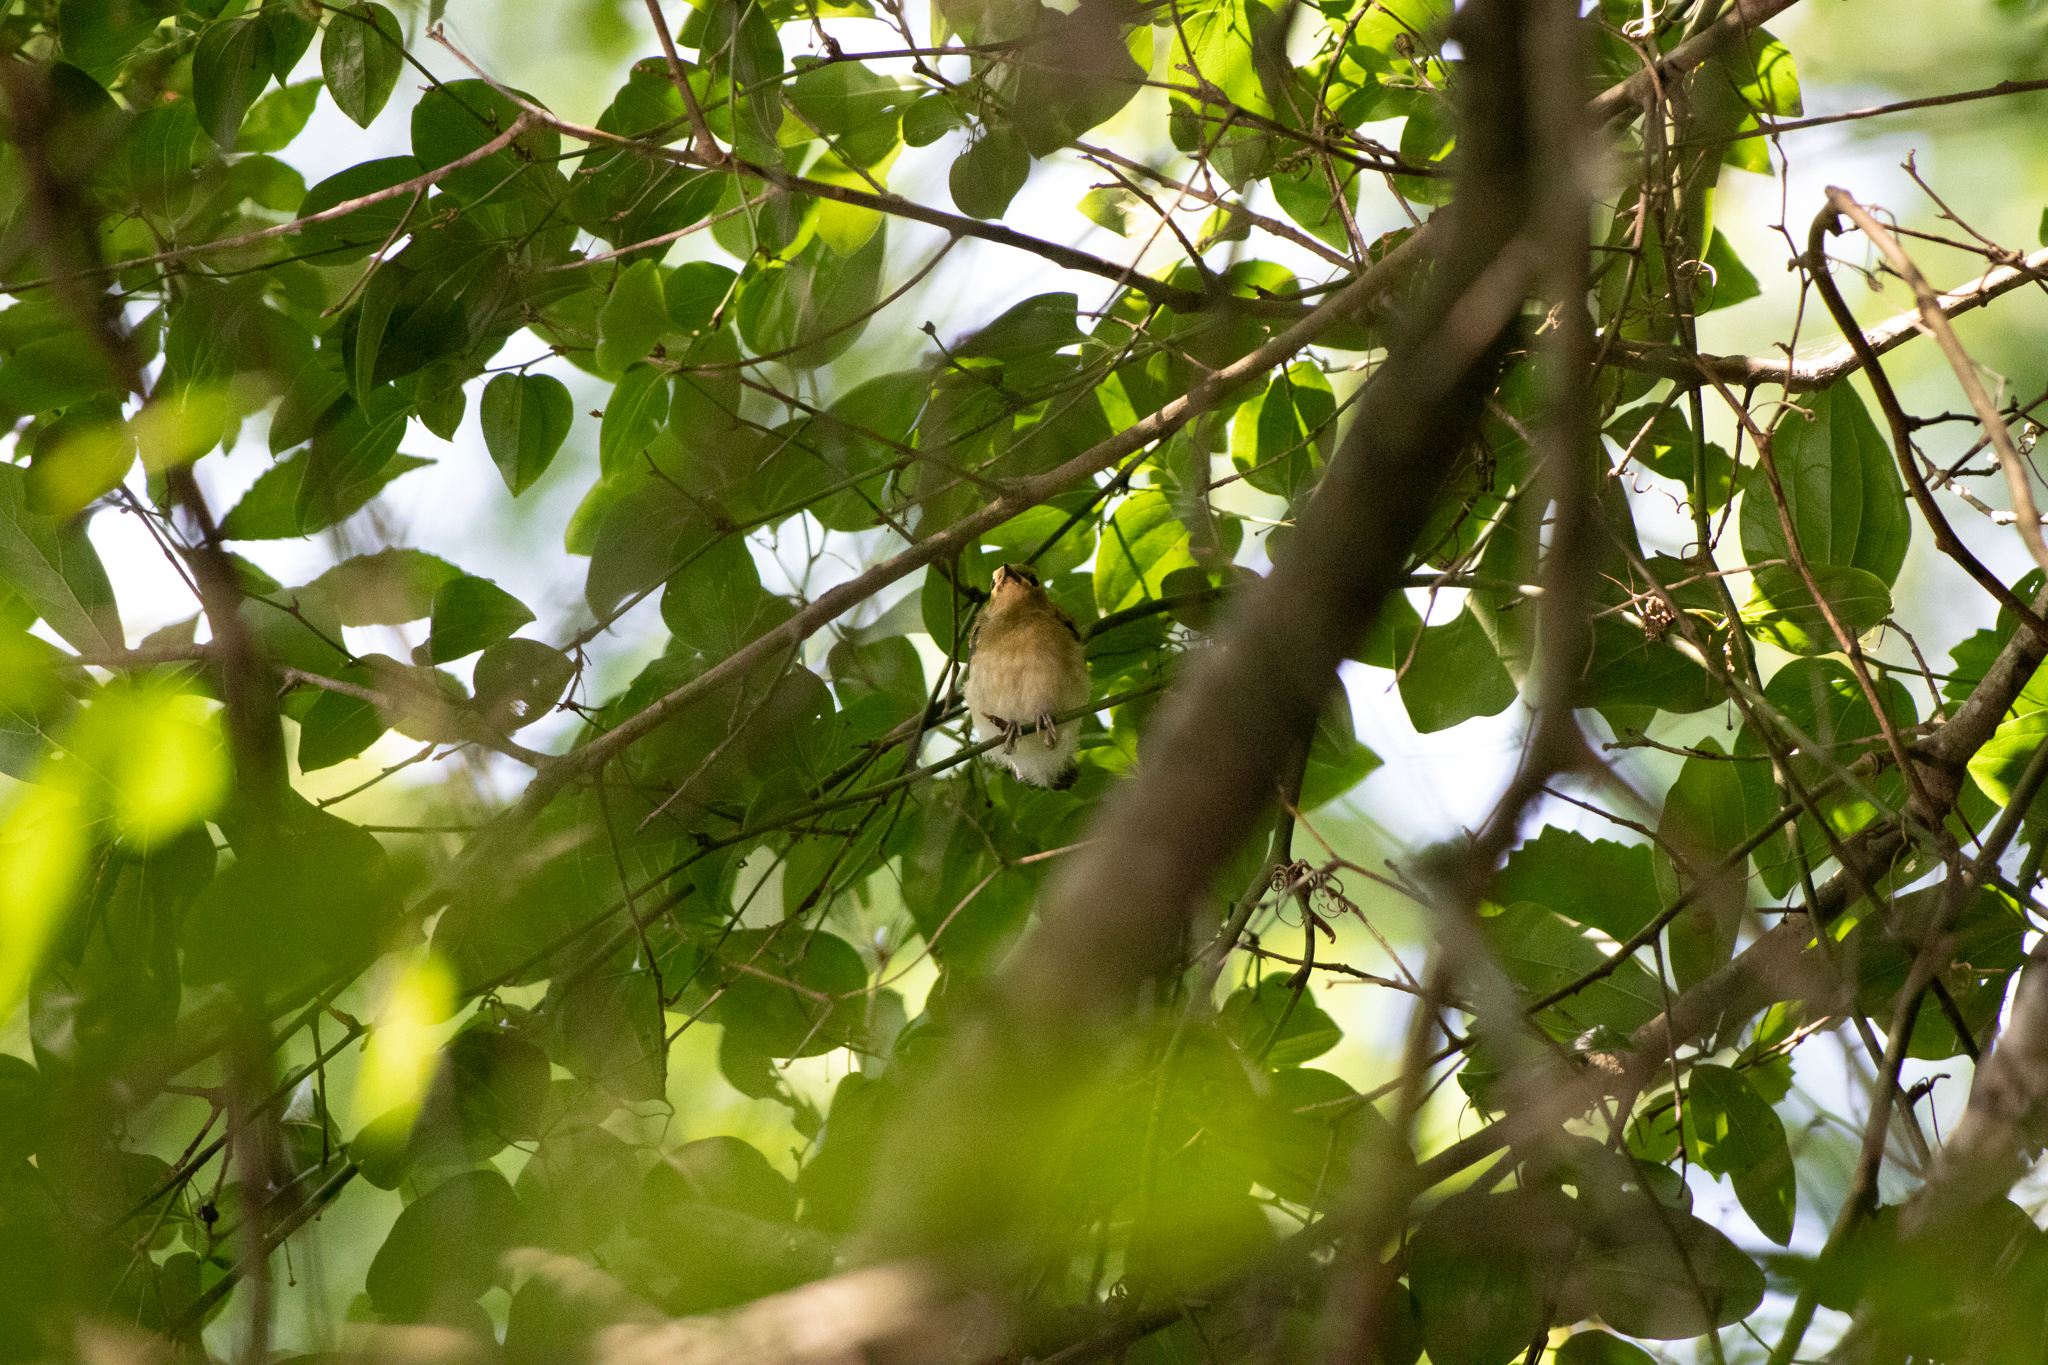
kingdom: Animalia
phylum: Chordata
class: Aves
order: Passeriformes
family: Parulidae
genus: Protonotaria
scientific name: Protonotaria citrea
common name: Prothonotary warbler
